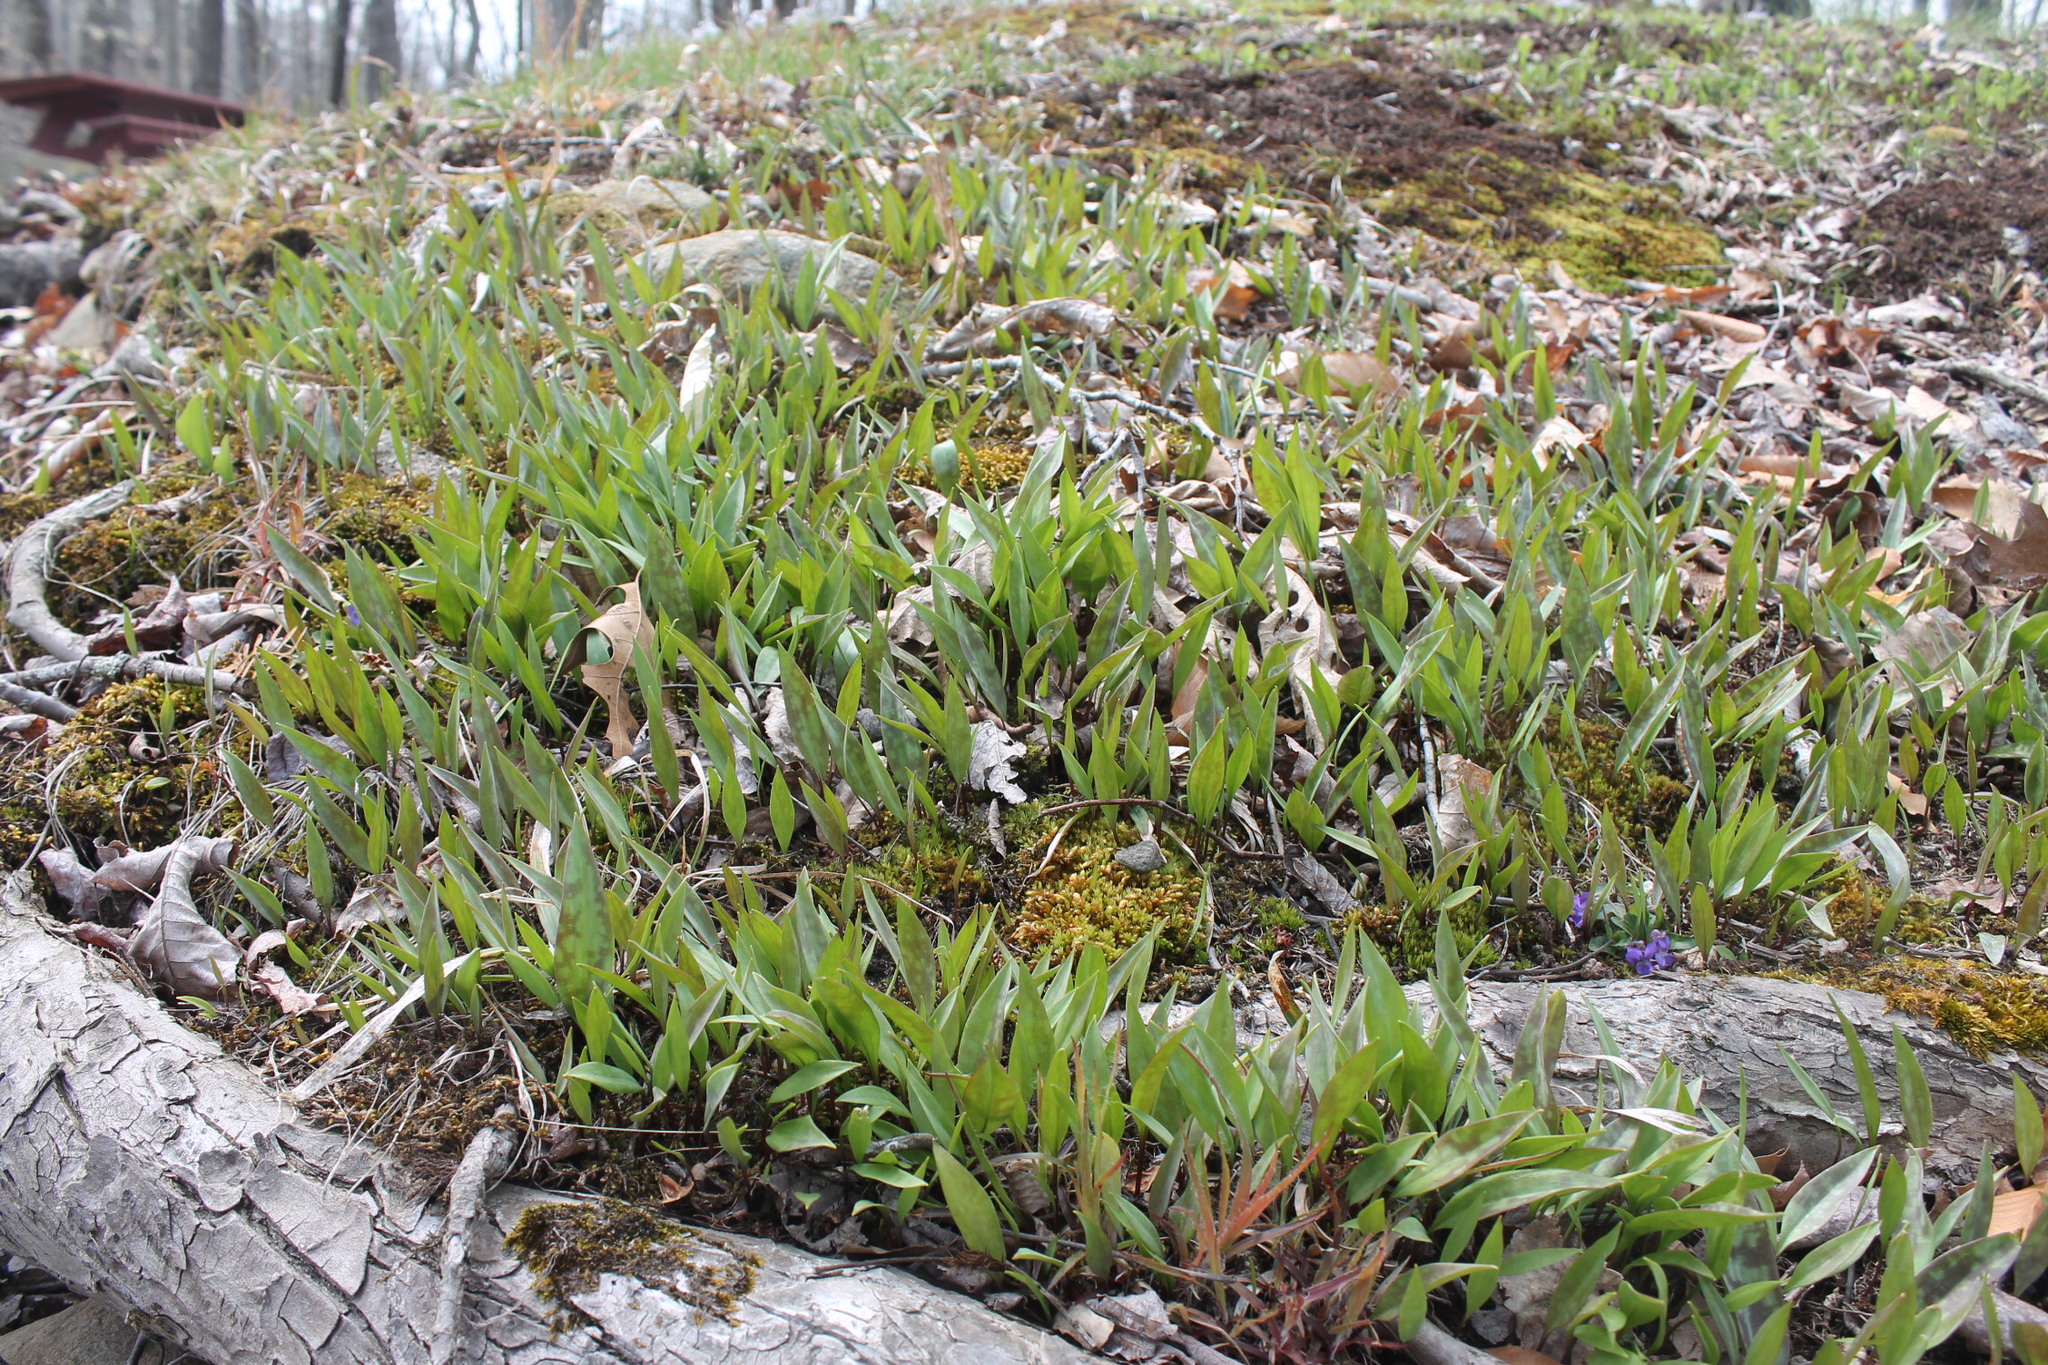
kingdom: Plantae
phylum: Tracheophyta
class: Liliopsida
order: Liliales
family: Liliaceae
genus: Erythronium
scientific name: Erythronium americanum
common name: Yellow adder's-tongue
